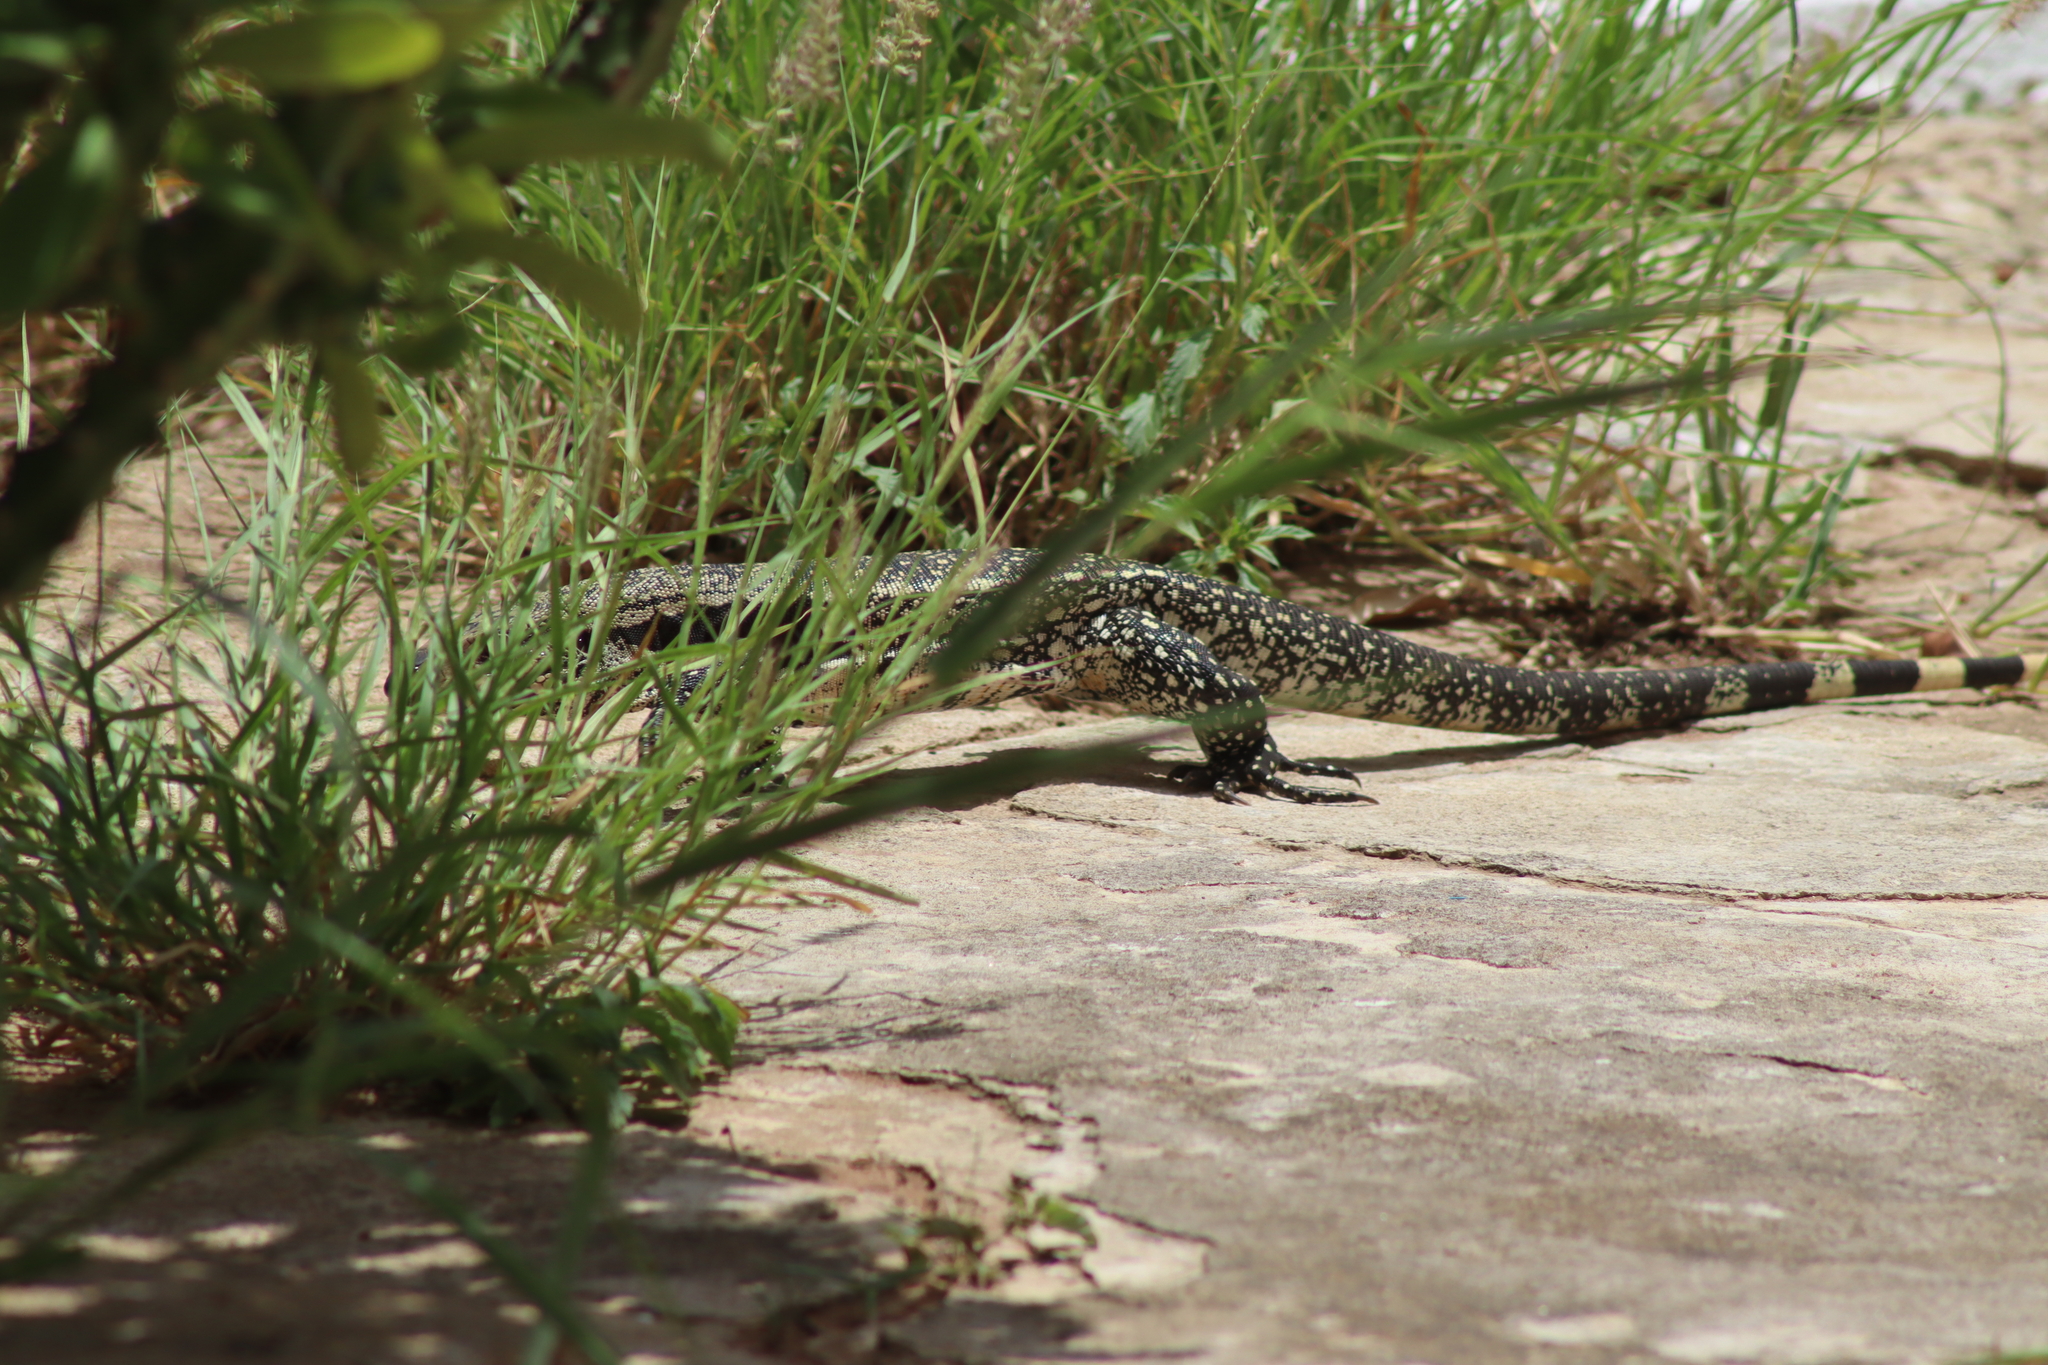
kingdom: Animalia
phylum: Chordata
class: Squamata
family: Teiidae
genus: Salvator
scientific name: Salvator merianae
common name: Argentine black and white tegu
